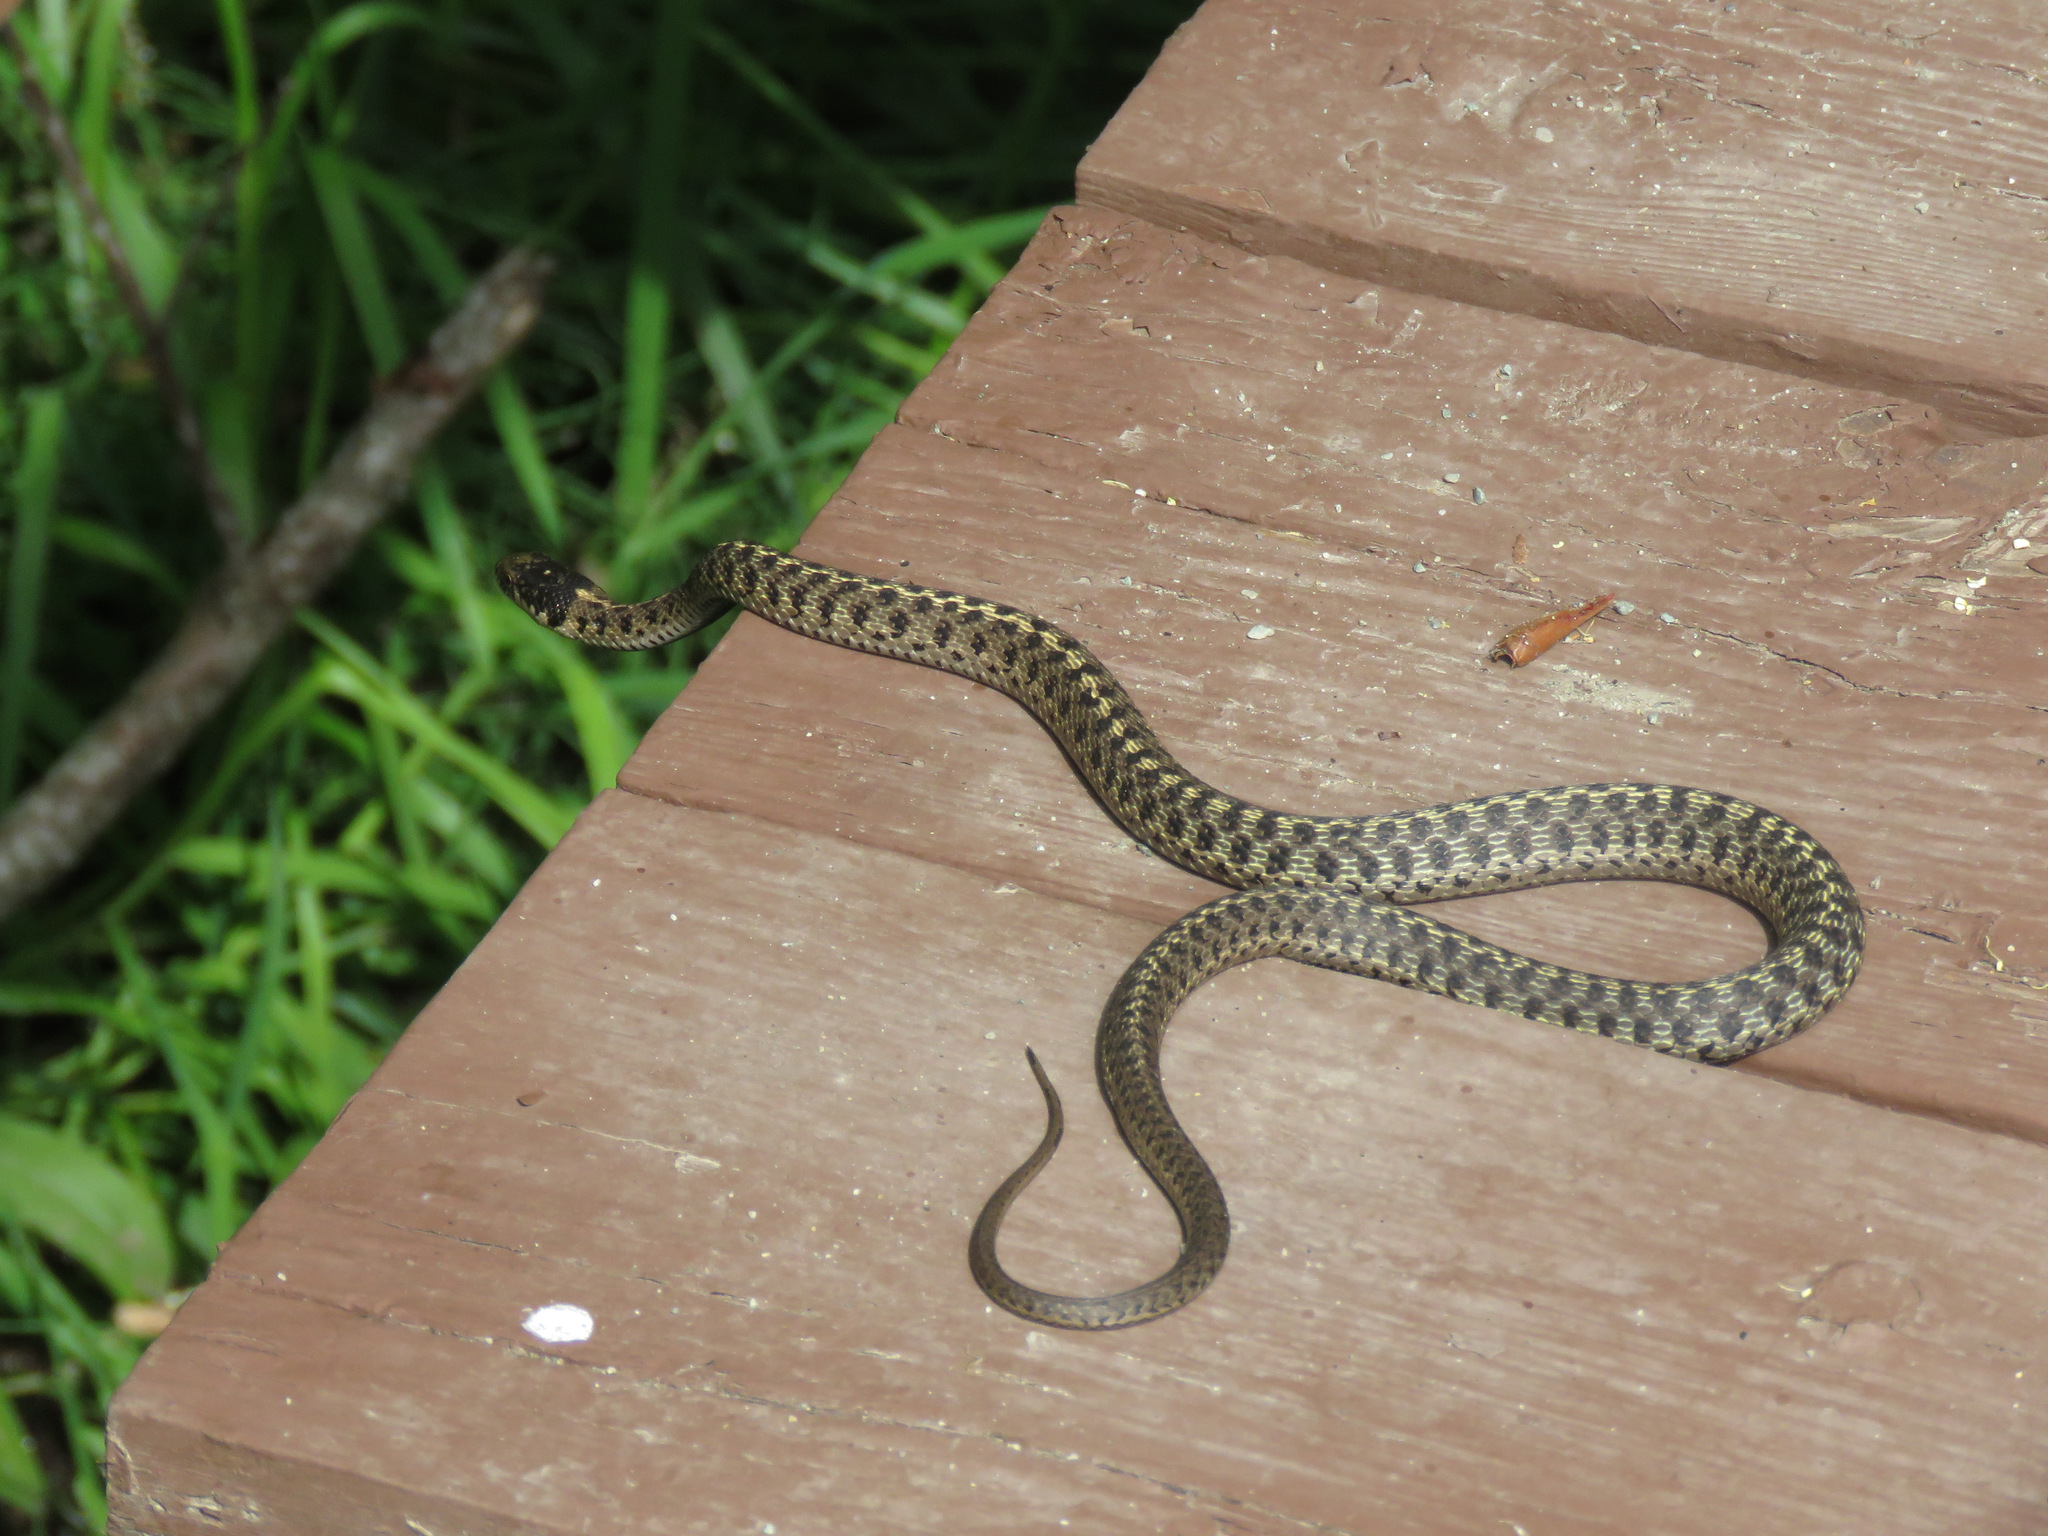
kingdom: Animalia
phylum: Chordata
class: Squamata
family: Colubridae
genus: Thamnophis
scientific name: Thamnophis elegans
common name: Western terrestrial garter snake
